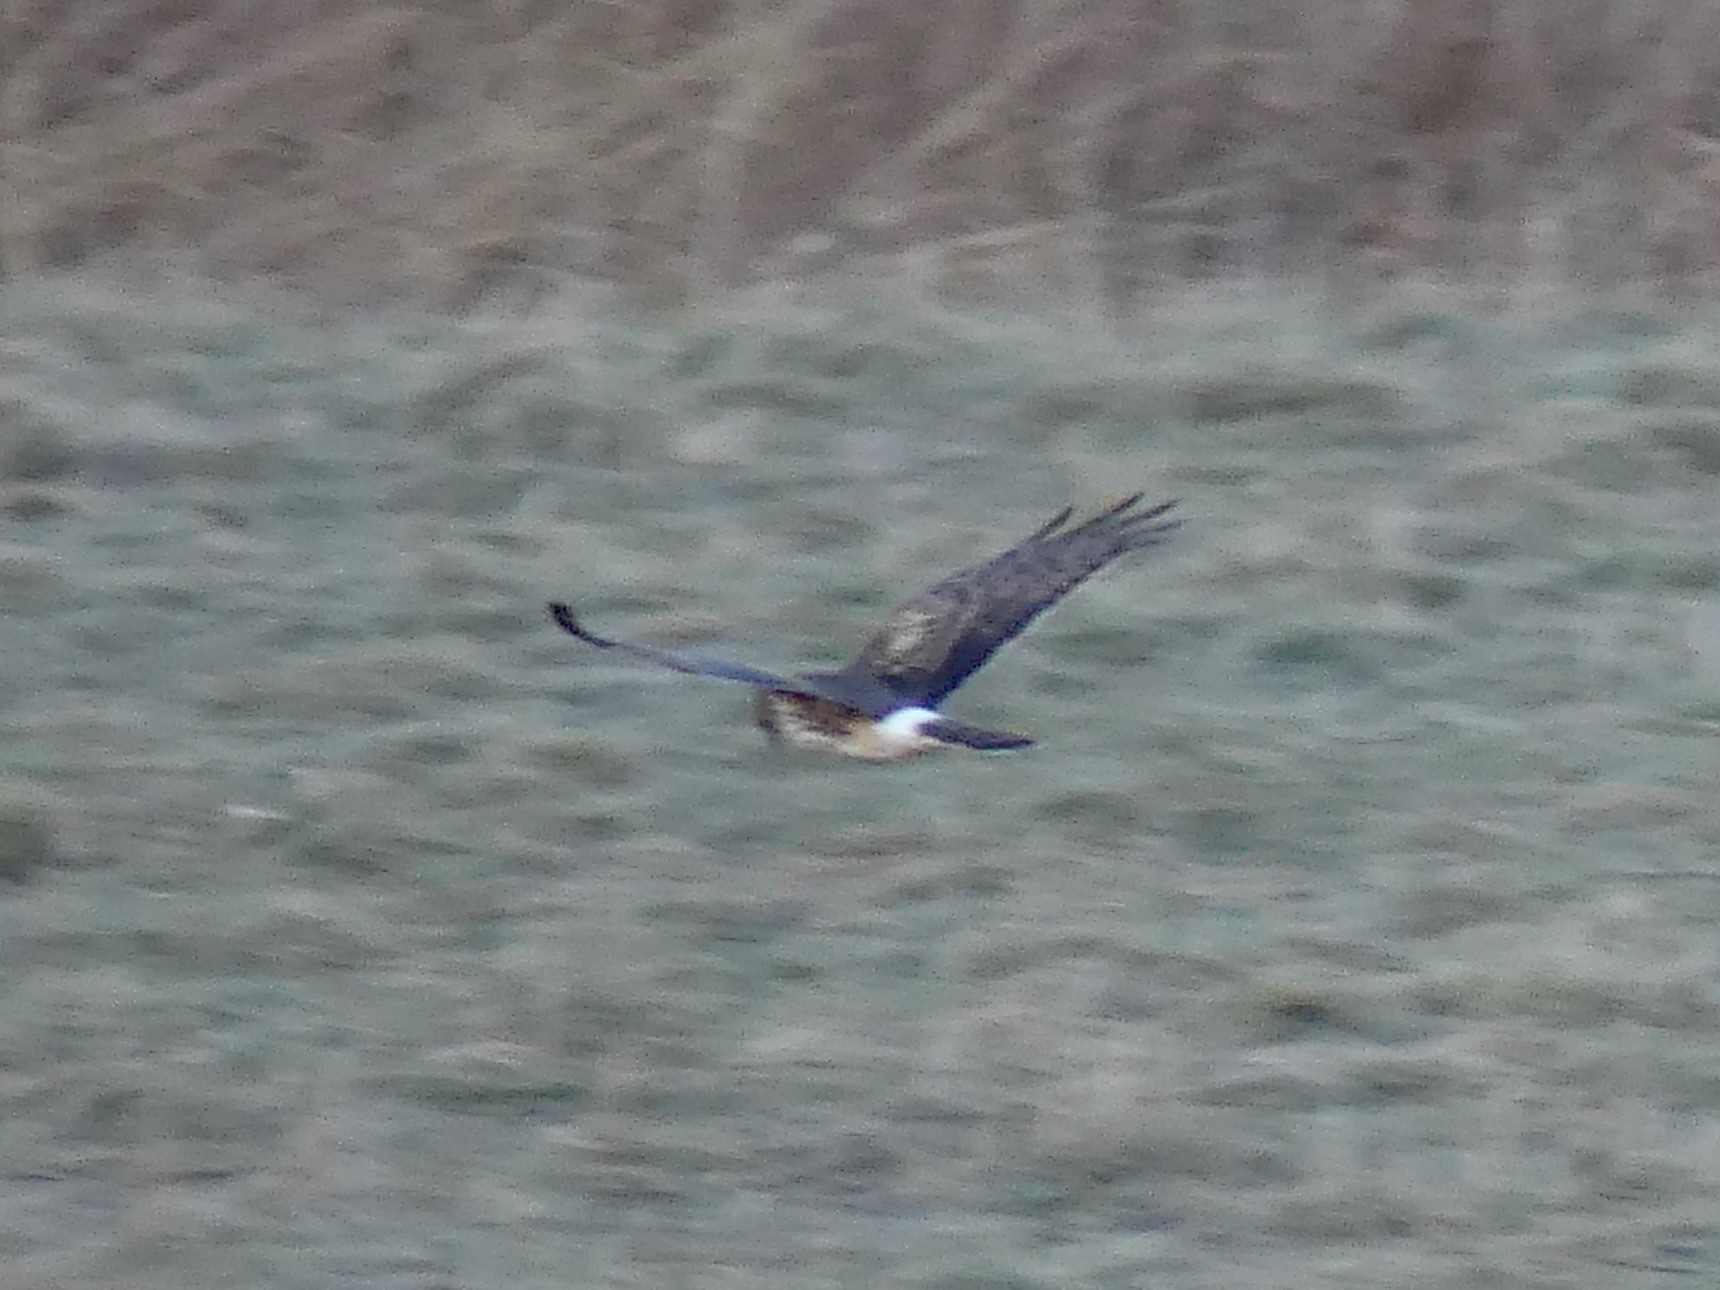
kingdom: Animalia
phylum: Chordata
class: Aves
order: Accipitriformes
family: Accipitridae
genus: Circus
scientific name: Circus cyaneus
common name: Hen harrier
